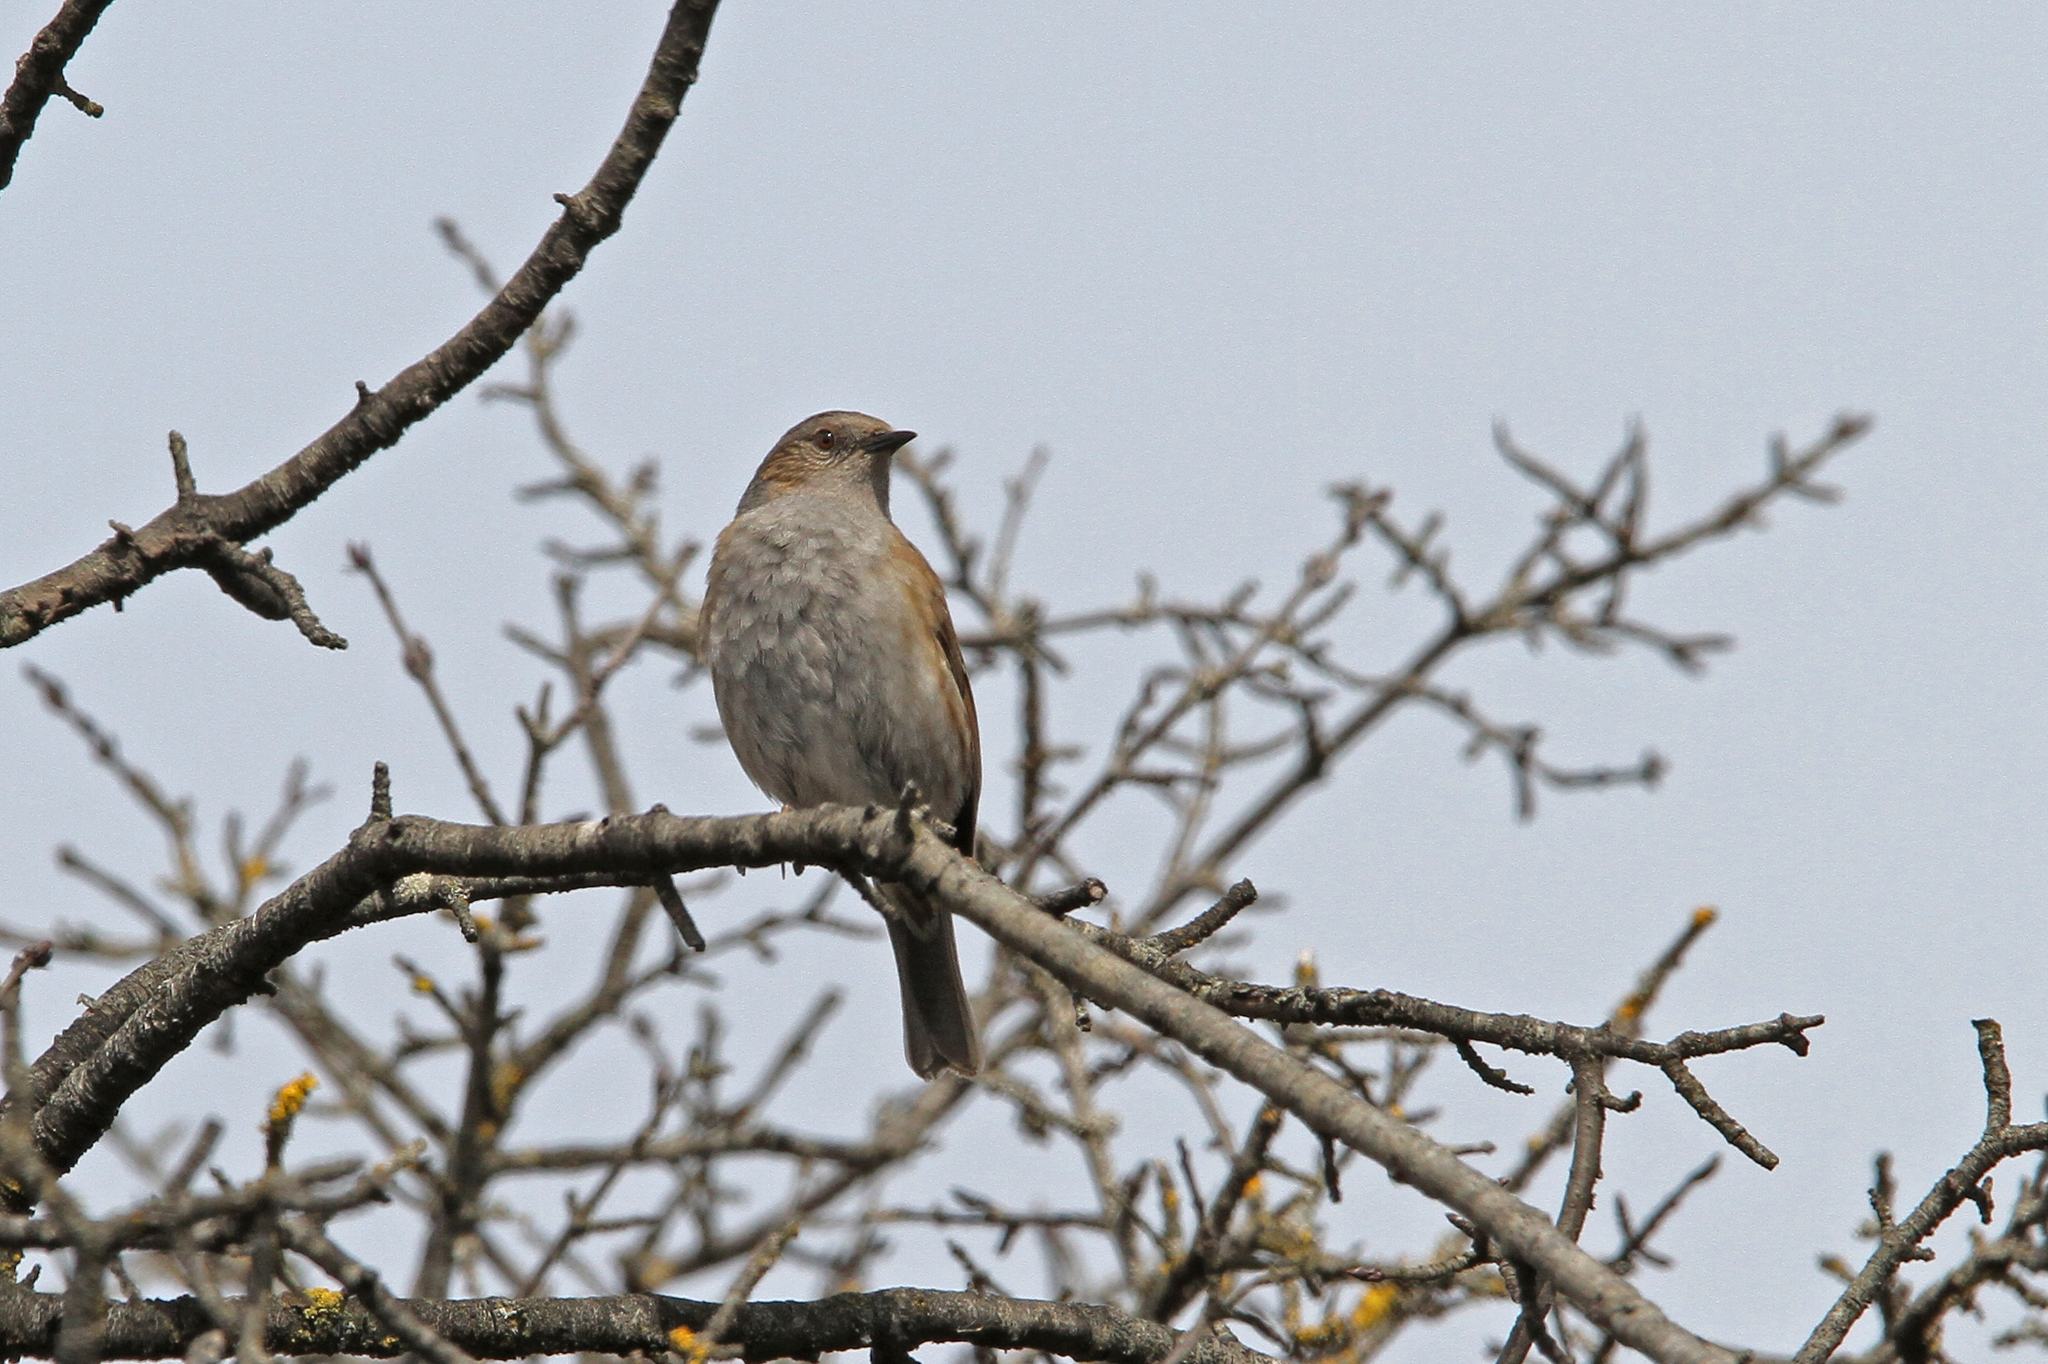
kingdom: Animalia
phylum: Chordata
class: Aves
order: Passeriformes
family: Prunellidae
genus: Prunella
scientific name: Prunella modularis
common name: Dunnock
